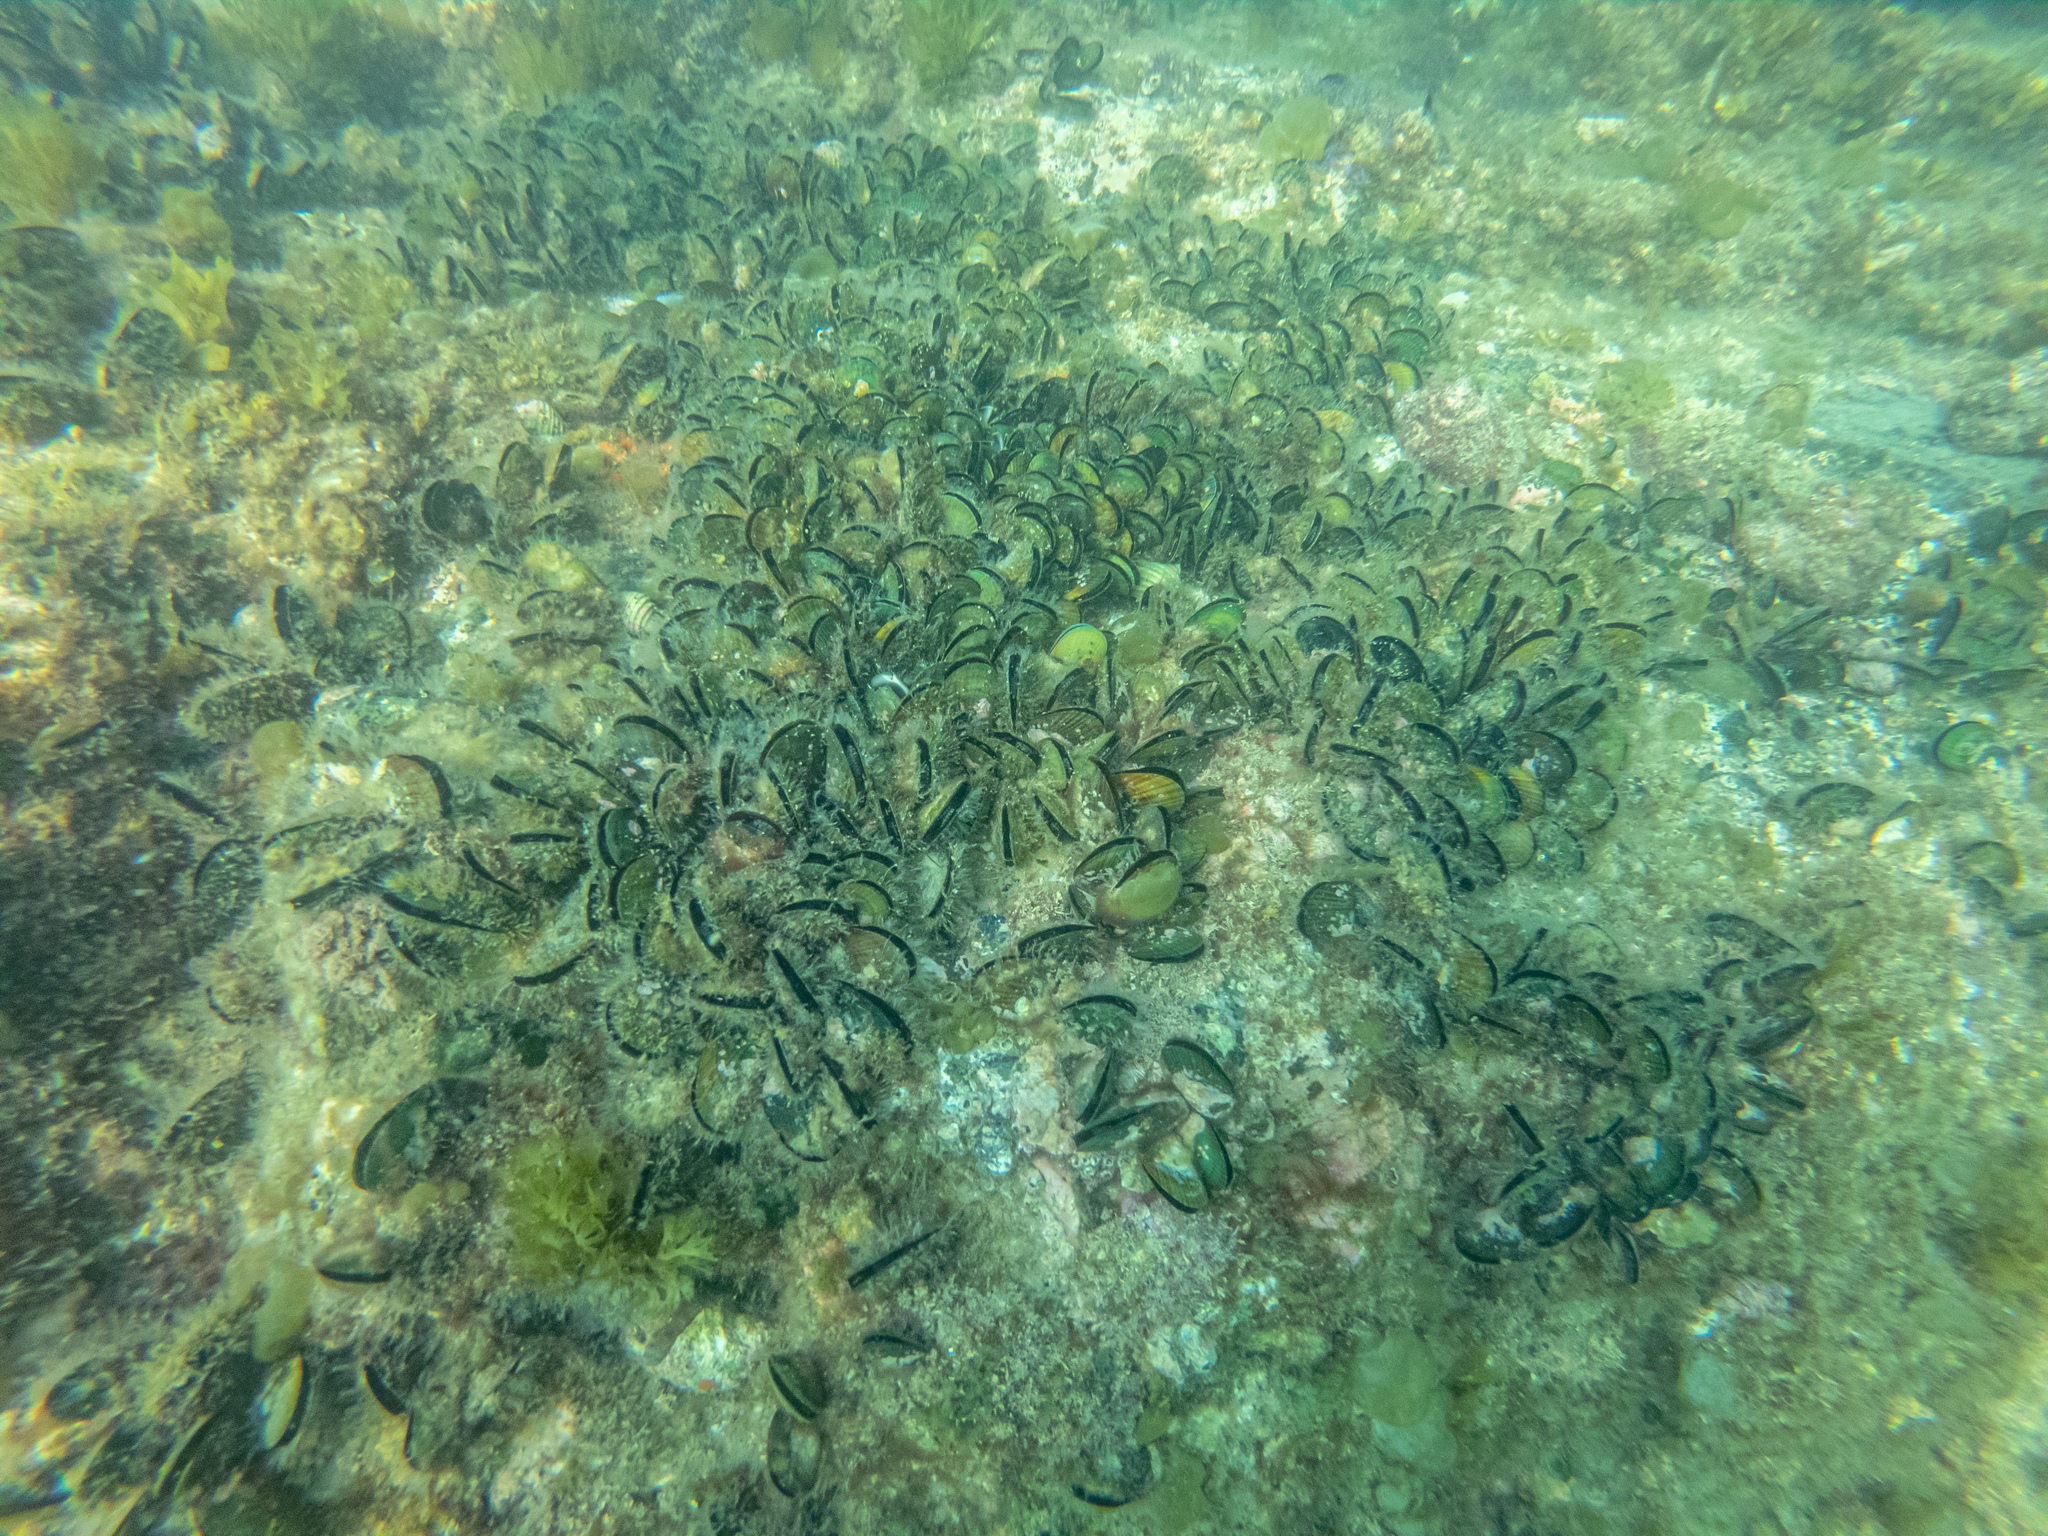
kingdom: Animalia
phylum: Mollusca
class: Bivalvia
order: Mytilida
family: Mytilidae
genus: Perna
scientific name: Perna canaliculus
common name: New zealand greenshelltm
